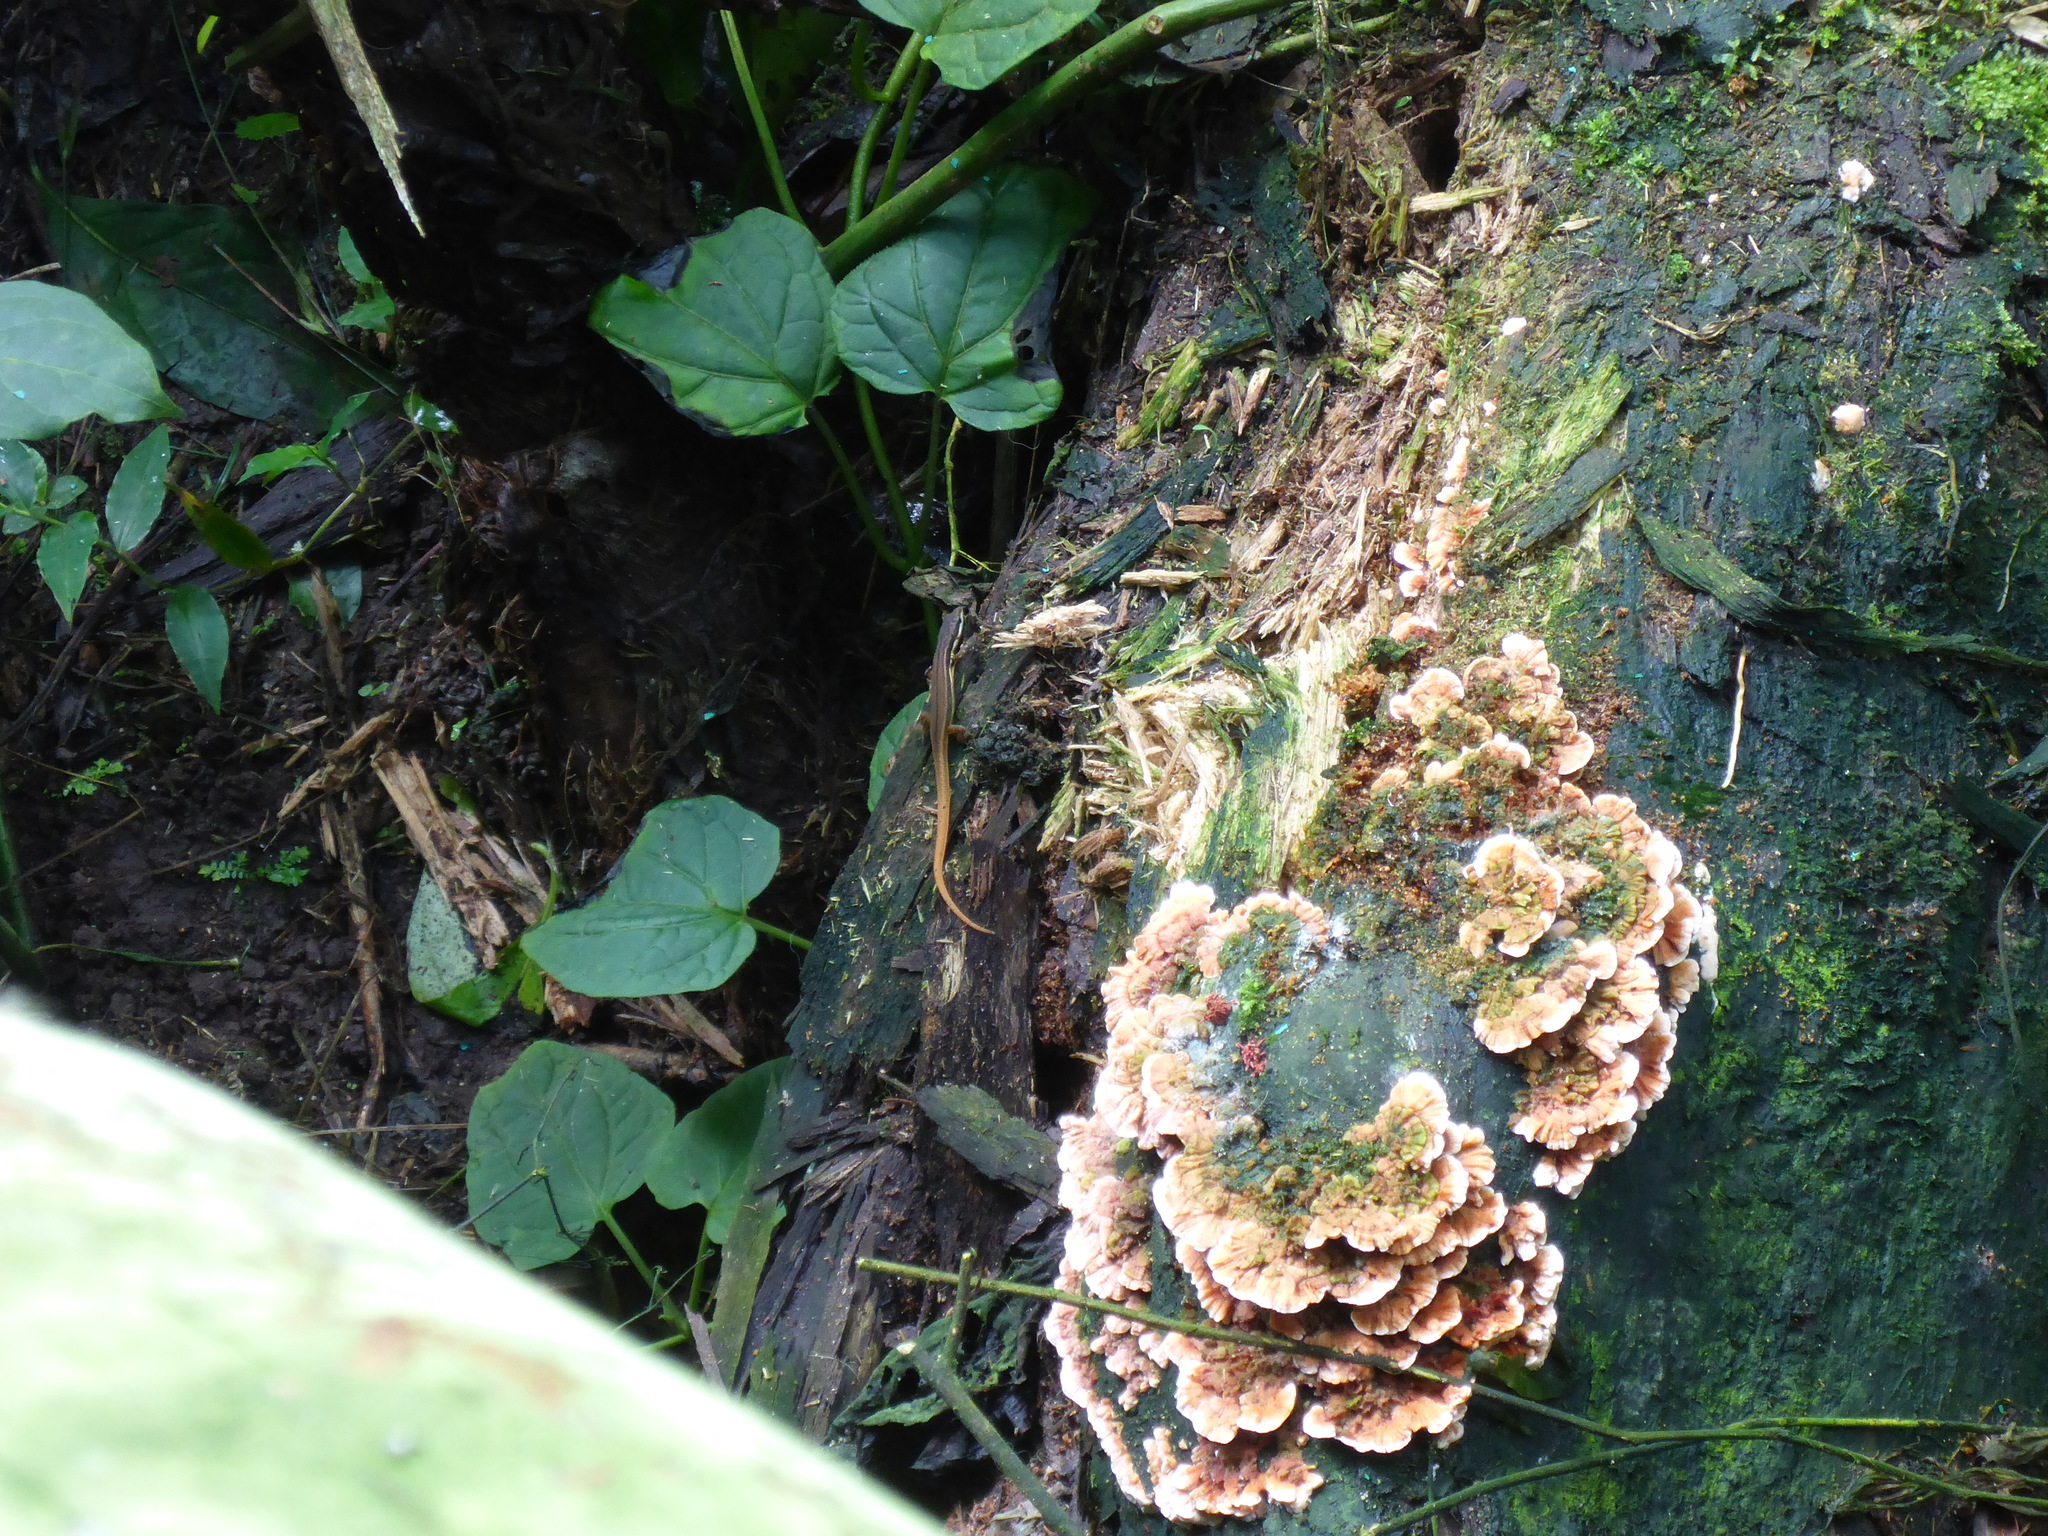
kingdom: Animalia
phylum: Chordata
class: Squamata
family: Gymnophthalmidae
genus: Cercosaura
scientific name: Cercosaura oshaughnessyi
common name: White-striped eyed lizard
